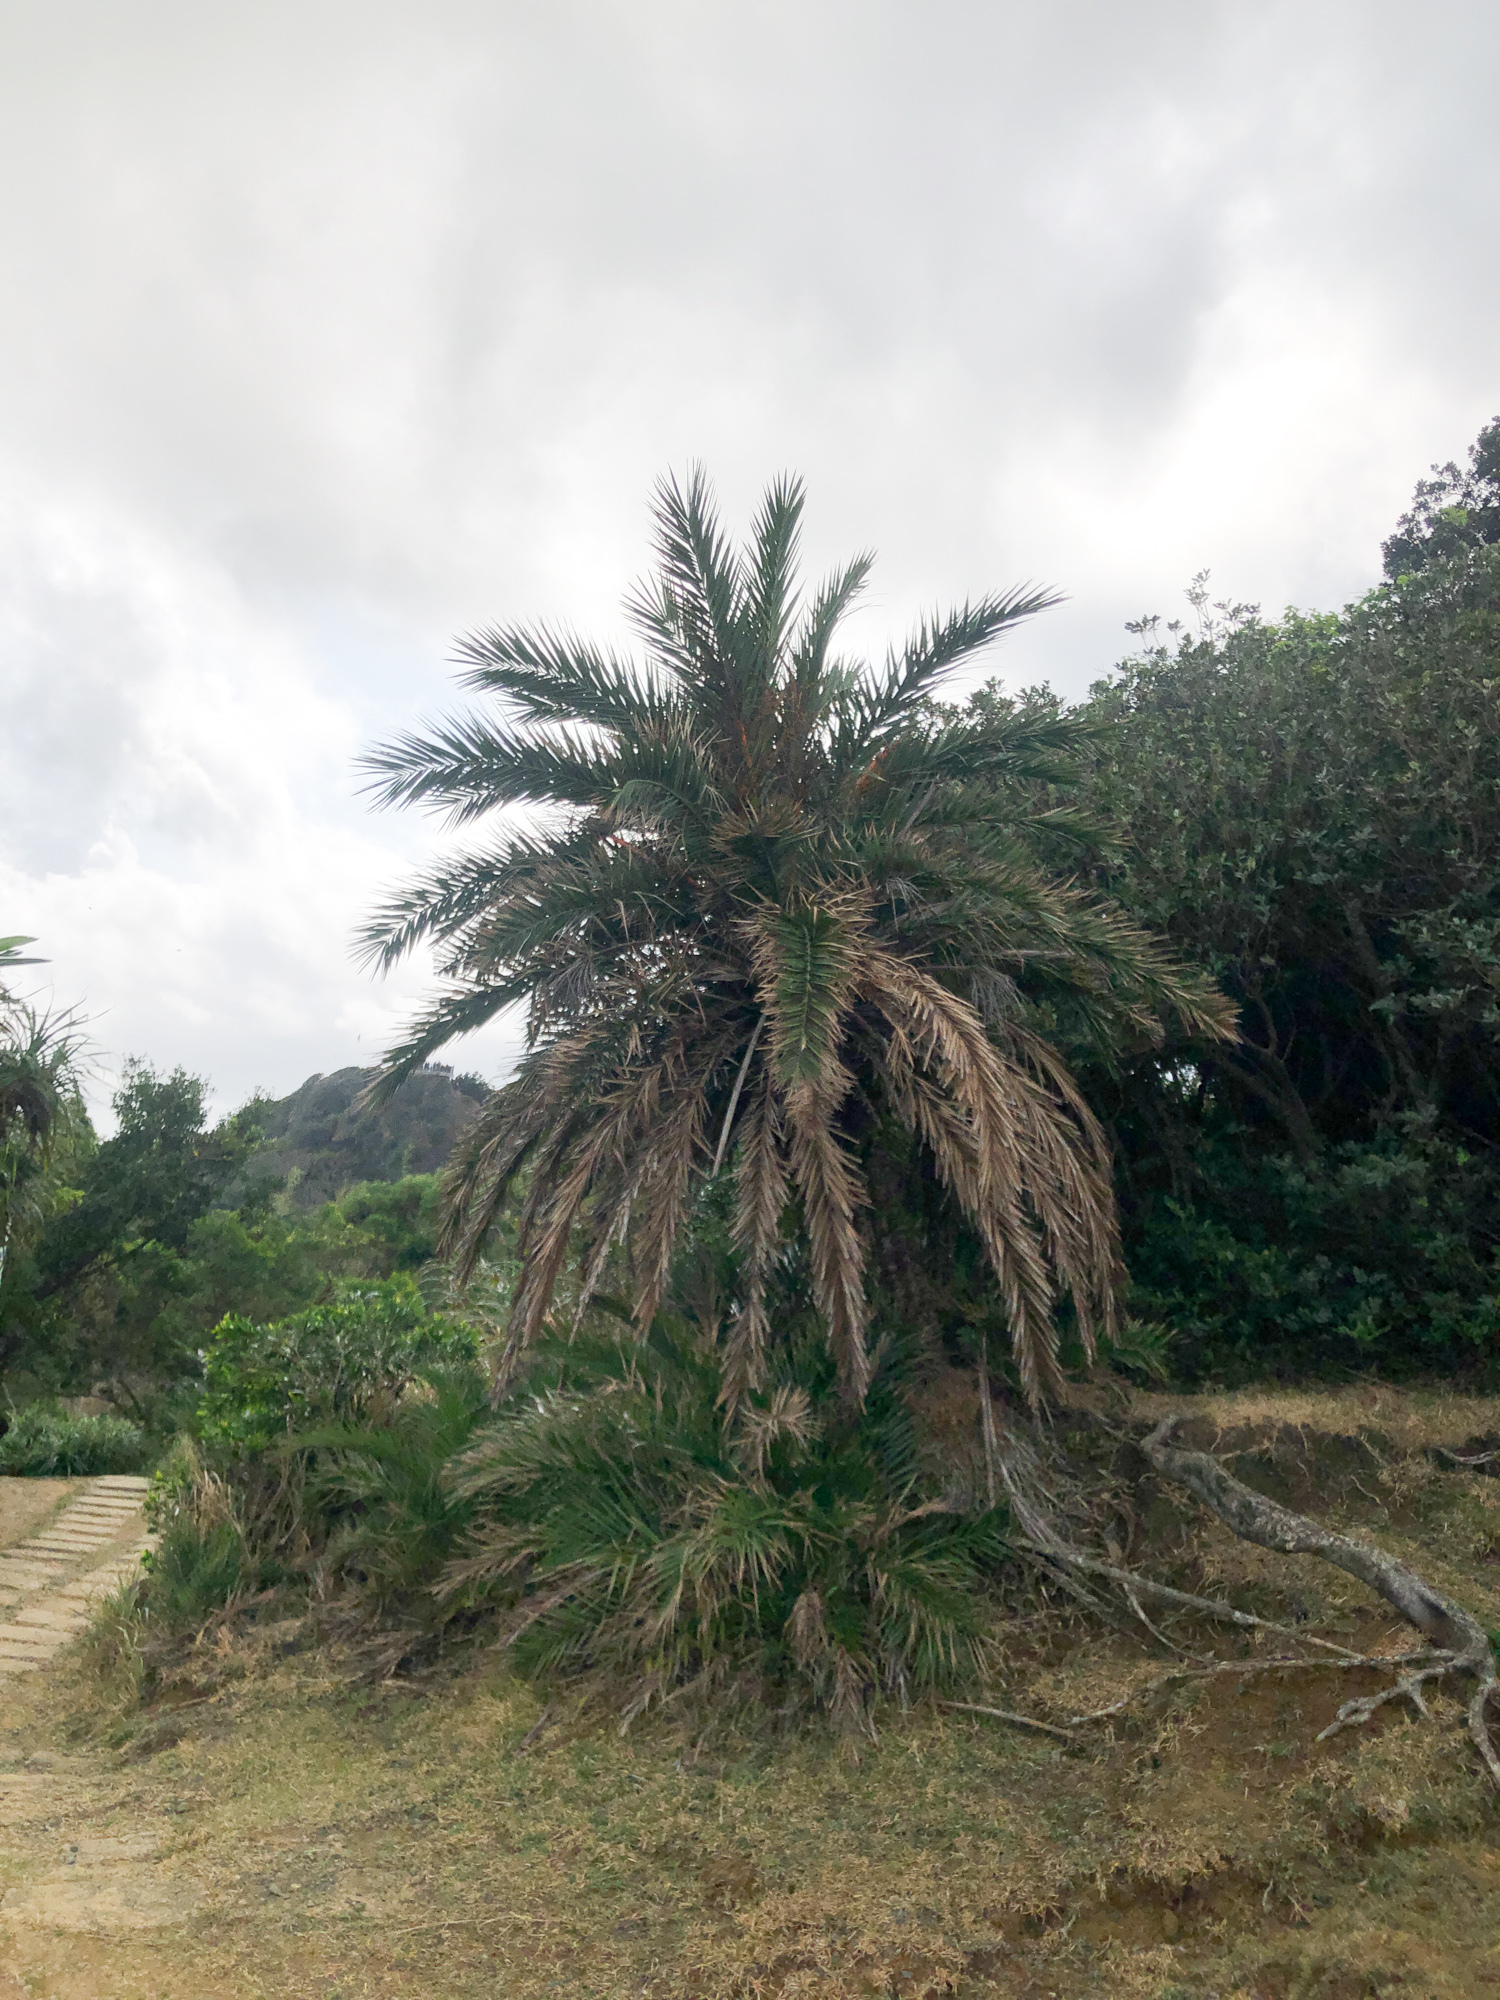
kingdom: Plantae
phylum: Tracheophyta
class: Liliopsida
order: Arecales
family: Arecaceae
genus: Phoenix
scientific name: Phoenix loureiroi
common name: Loureiro's palm
